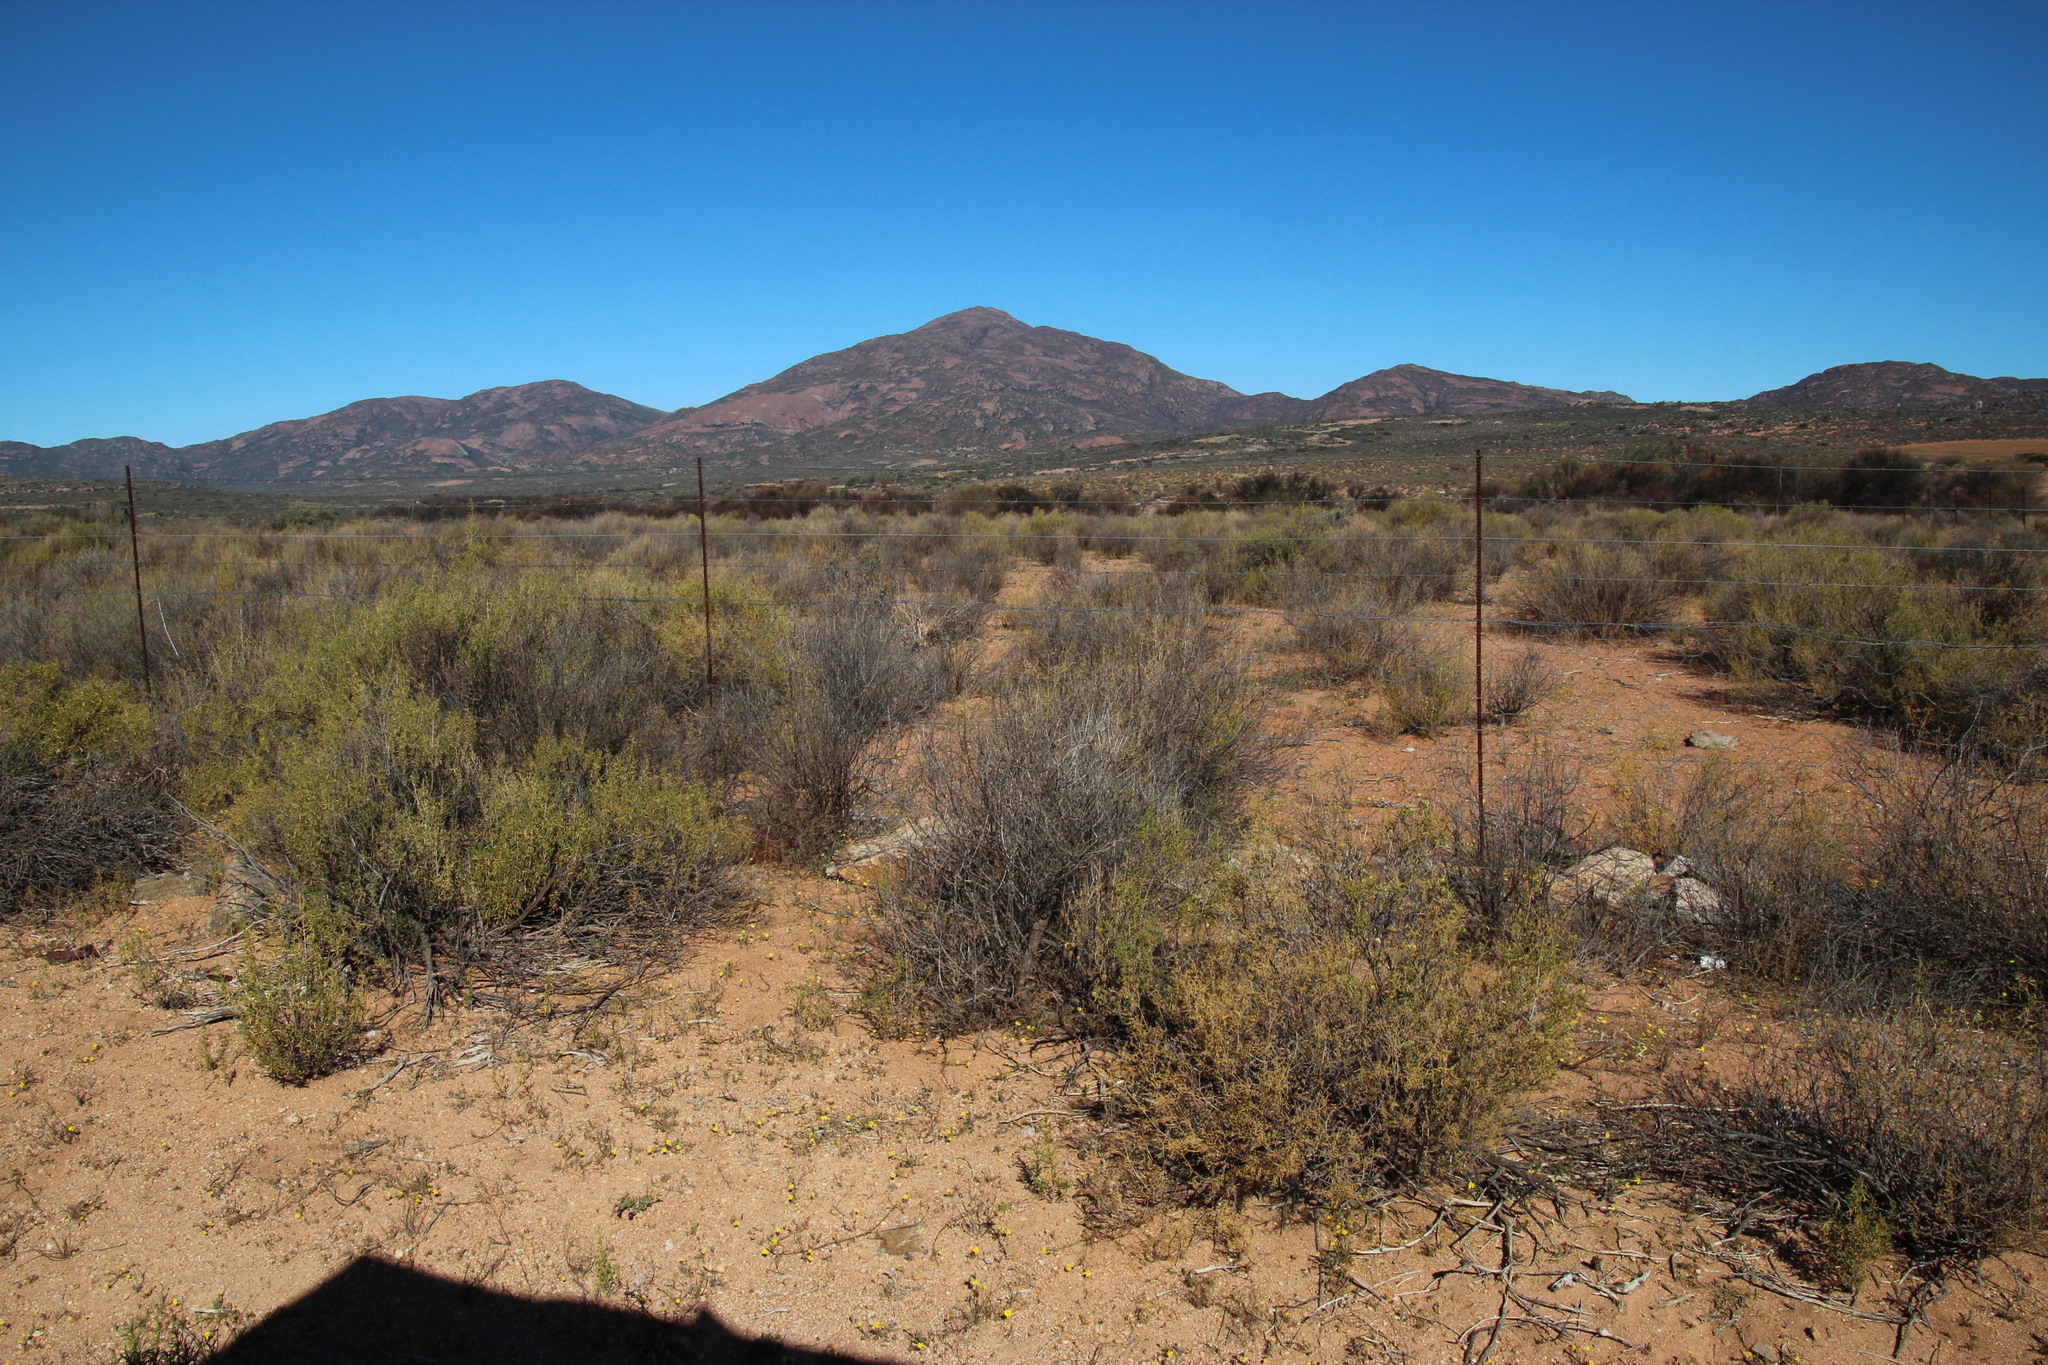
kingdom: Plantae
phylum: Tracheophyta
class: Magnoliopsida
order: Caryophyllales
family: Aizoaceae
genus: Aizoon
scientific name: Aizoon africanum
